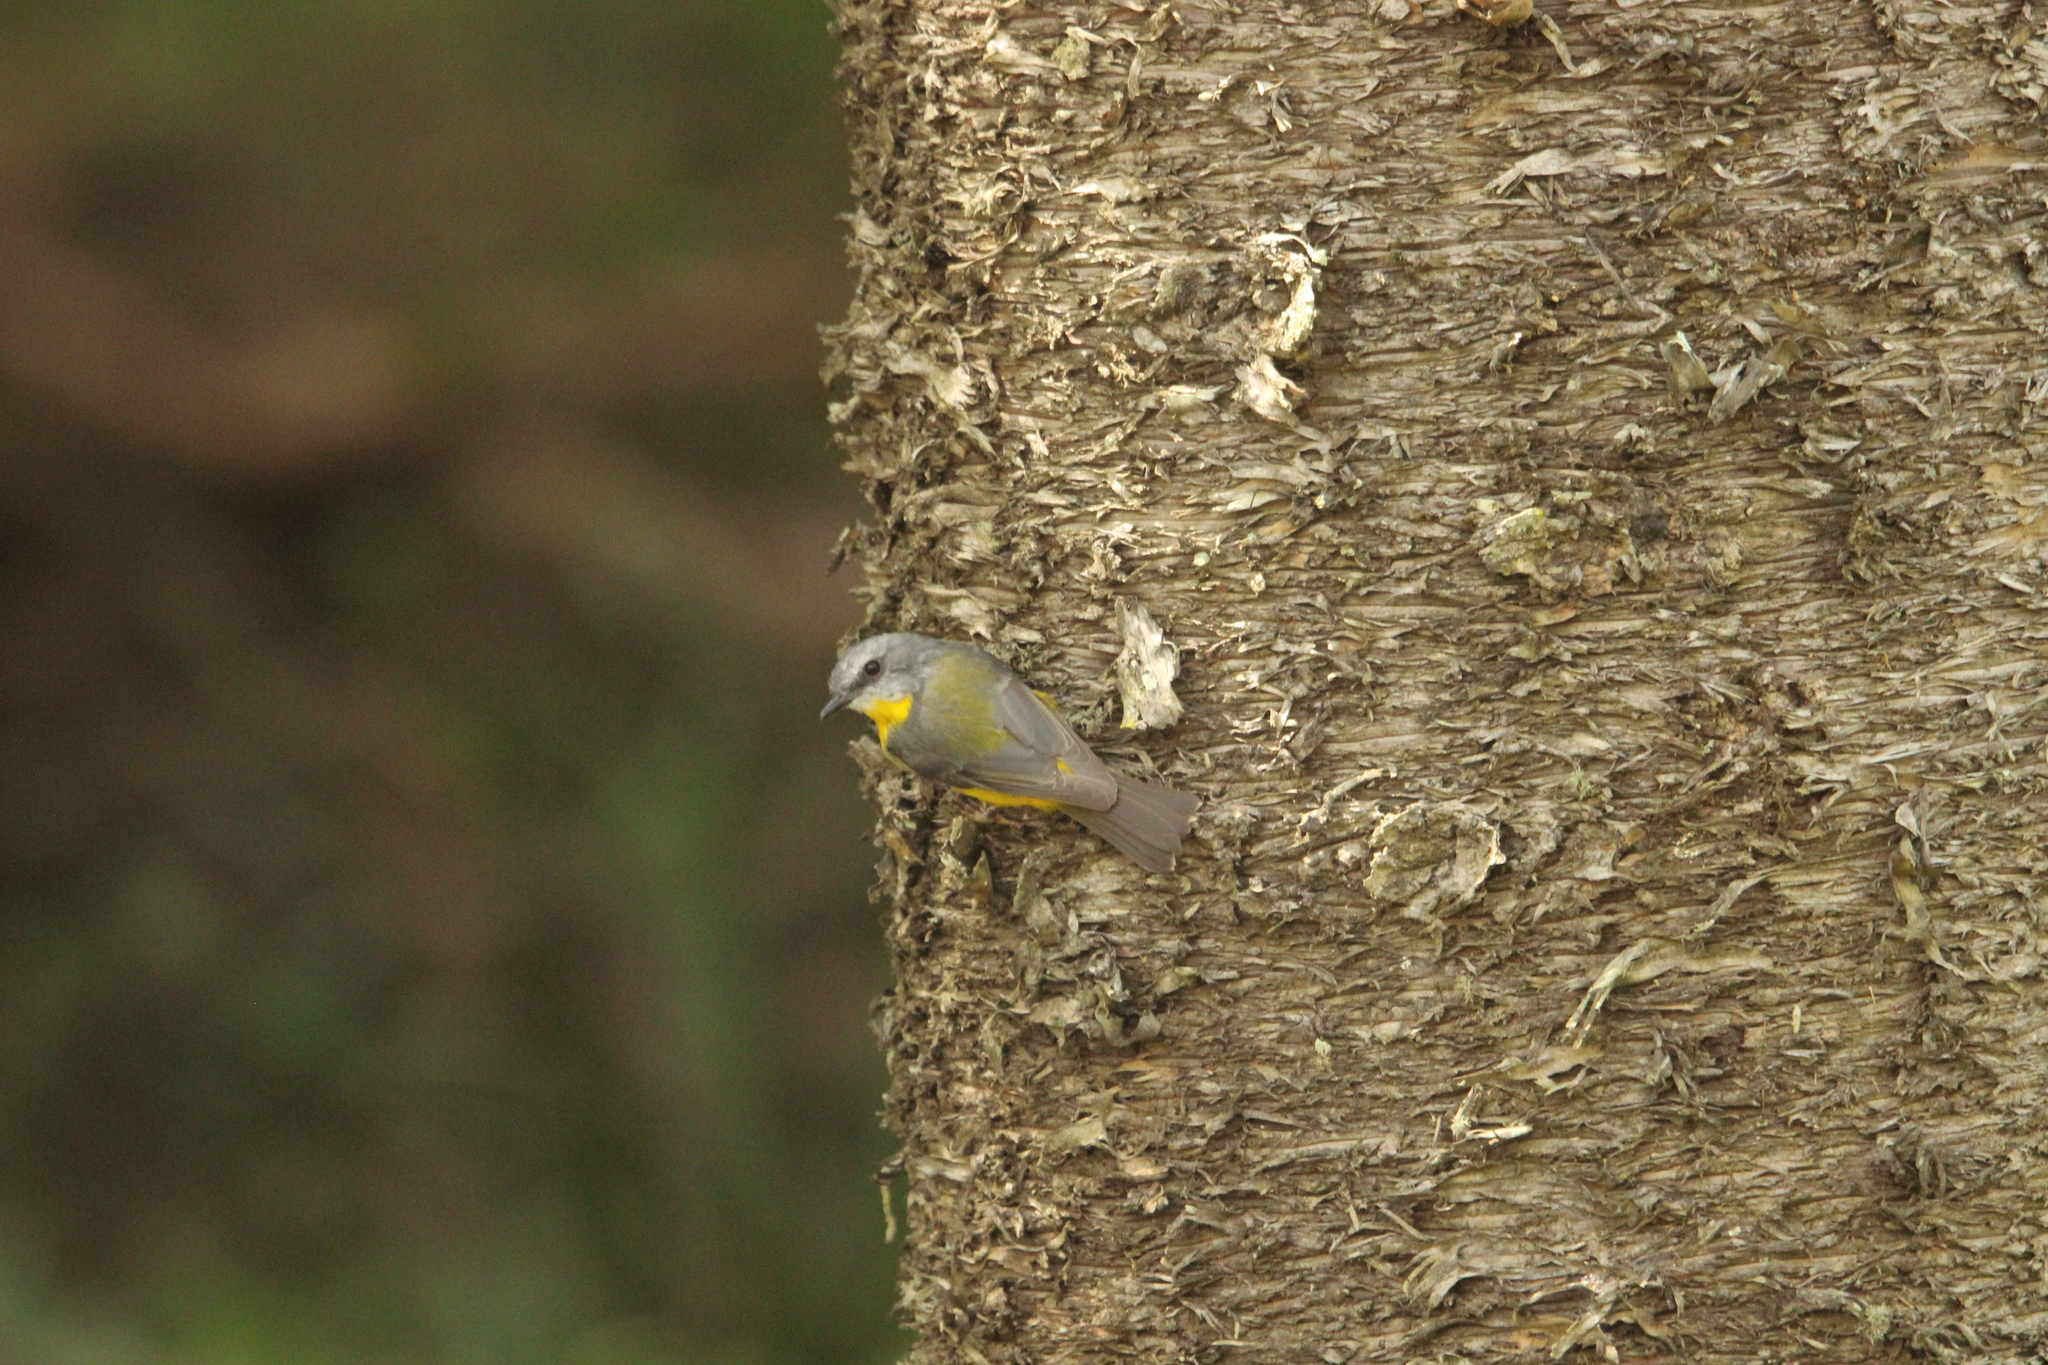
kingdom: Animalia
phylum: Chordata
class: Aves
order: Passeriformes
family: Petroicidae
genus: Eopsaltria
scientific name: Eopsaltria australis
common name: Eastern yellow robin
